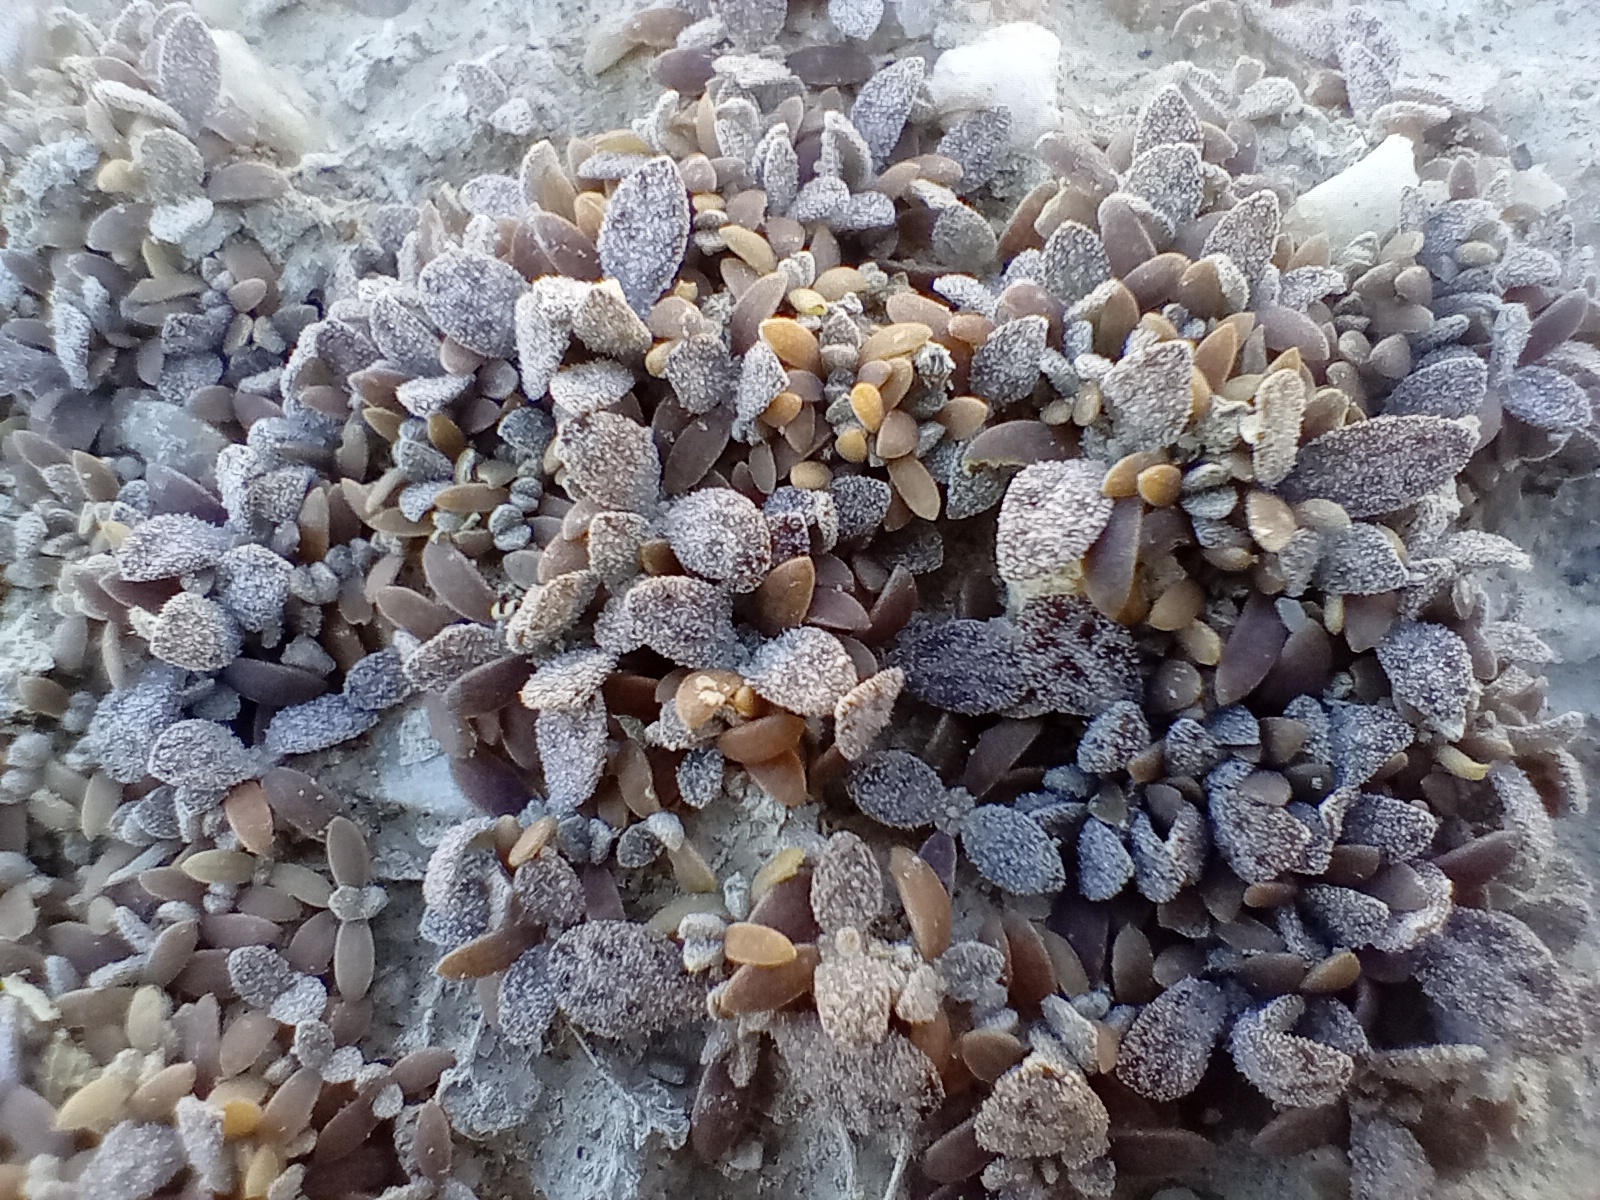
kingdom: Plantae
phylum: Tracheophyta
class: Magnoliopsida
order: Caryophyllales
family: Amaranthaceae
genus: Atriplex
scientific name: Atriplex buchananii
